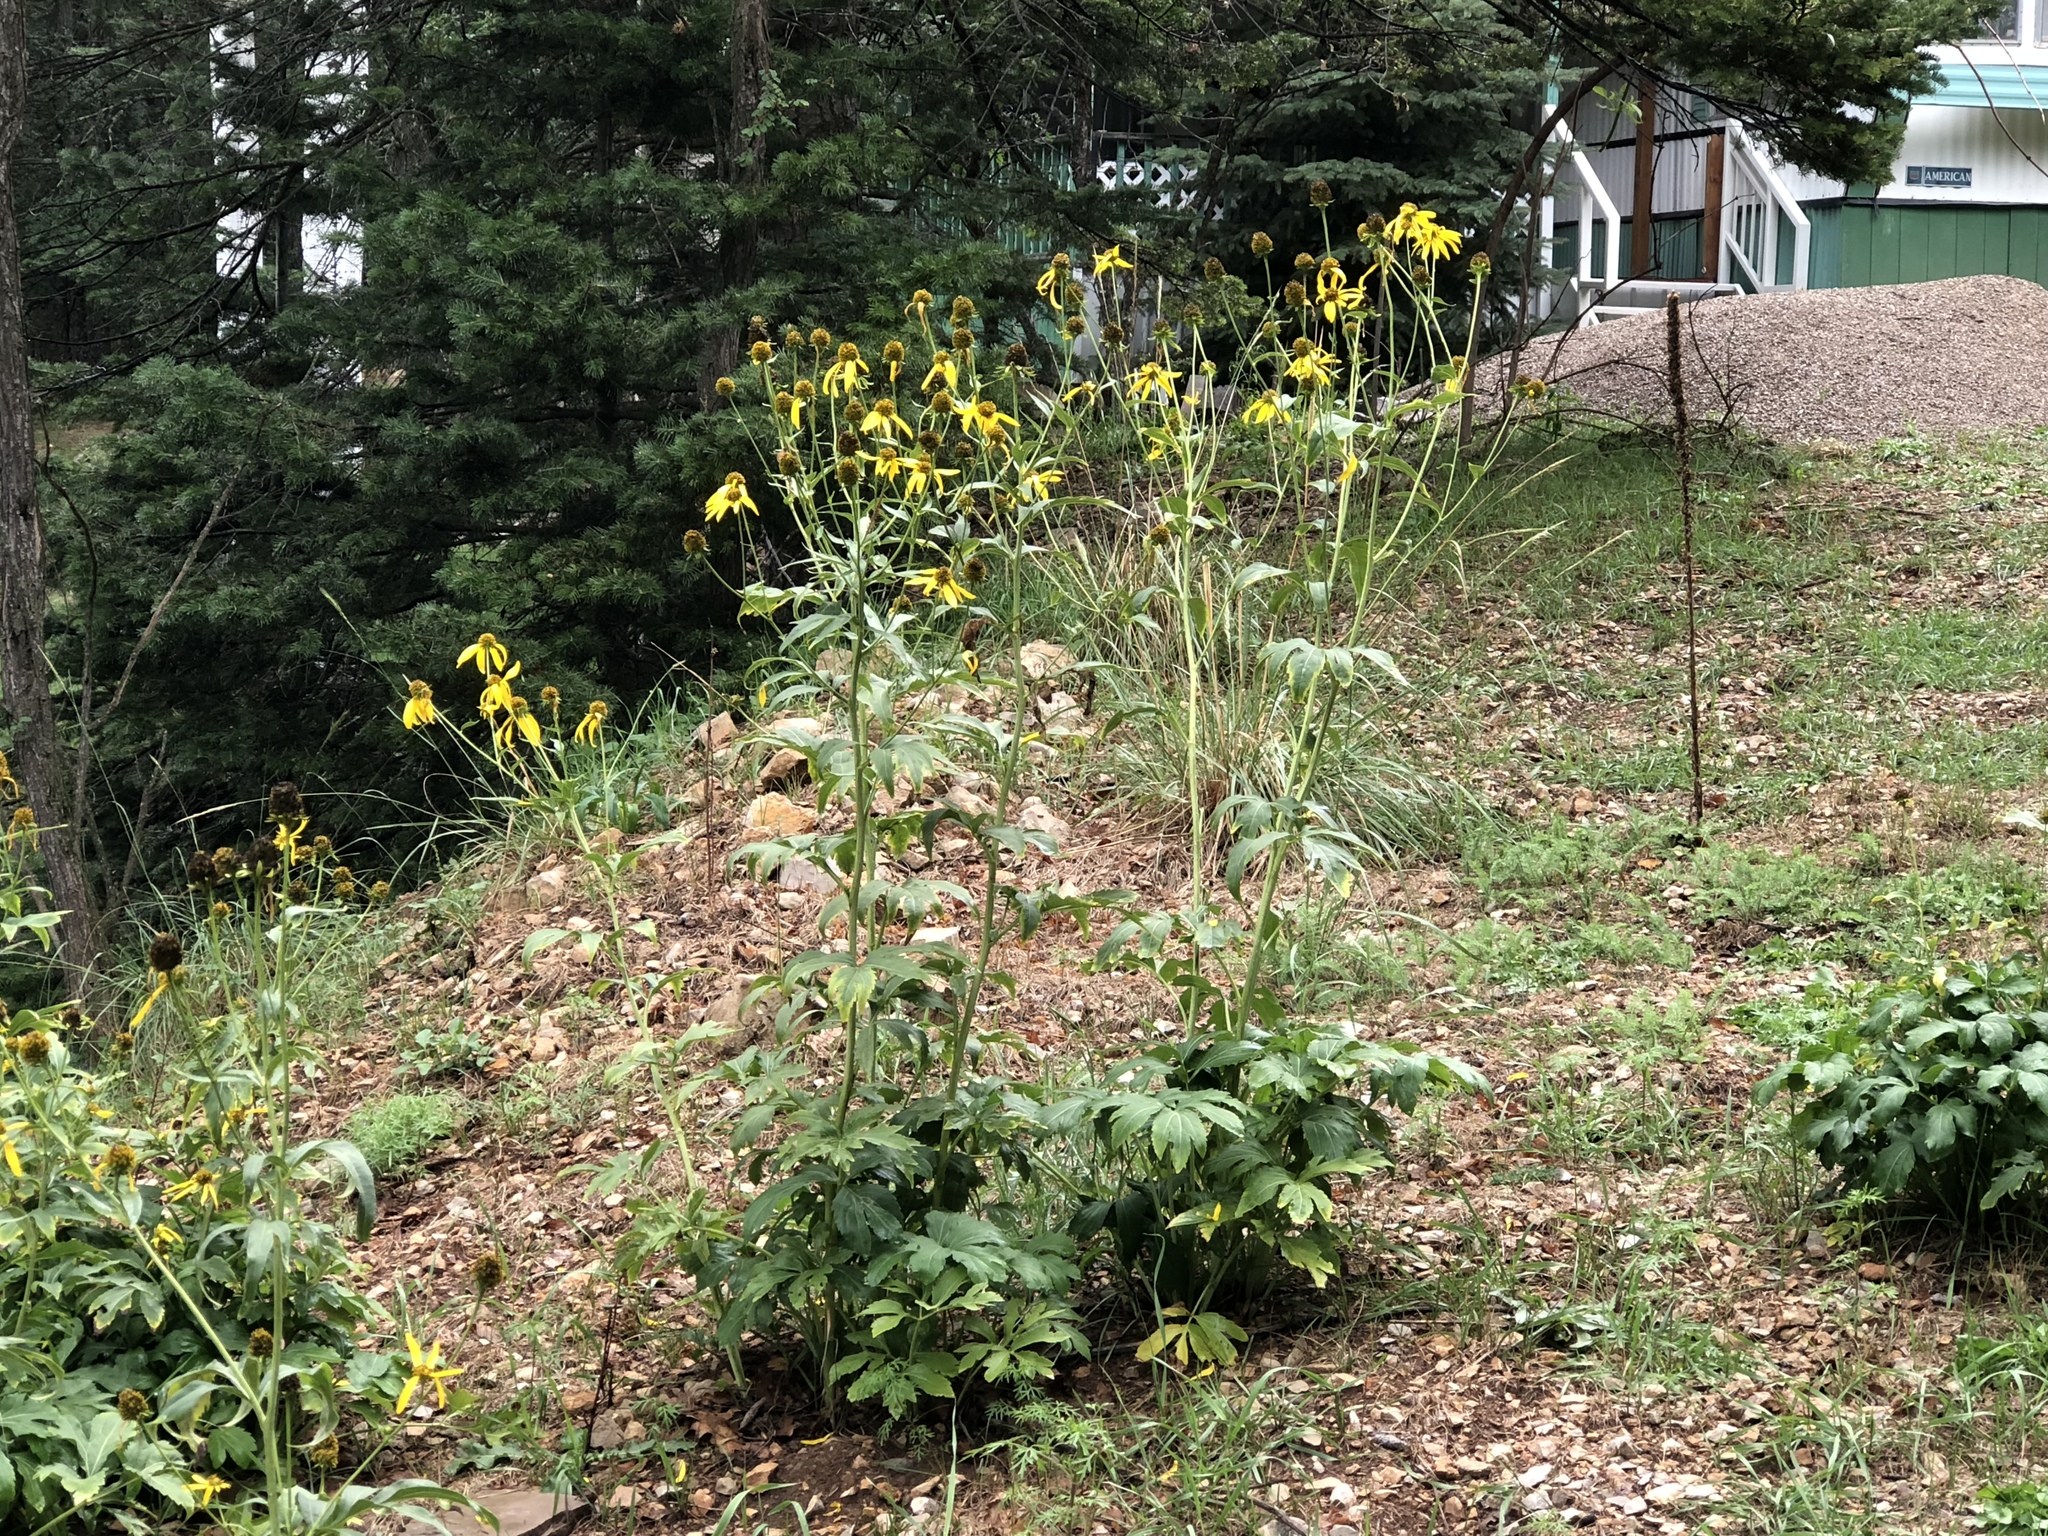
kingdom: Plantae
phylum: Tracheophyta
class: Magnoliopsida
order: Asterales
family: Asteraceae
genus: Rudbeckia
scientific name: Rudbeckia laciniata
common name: Coneflower
